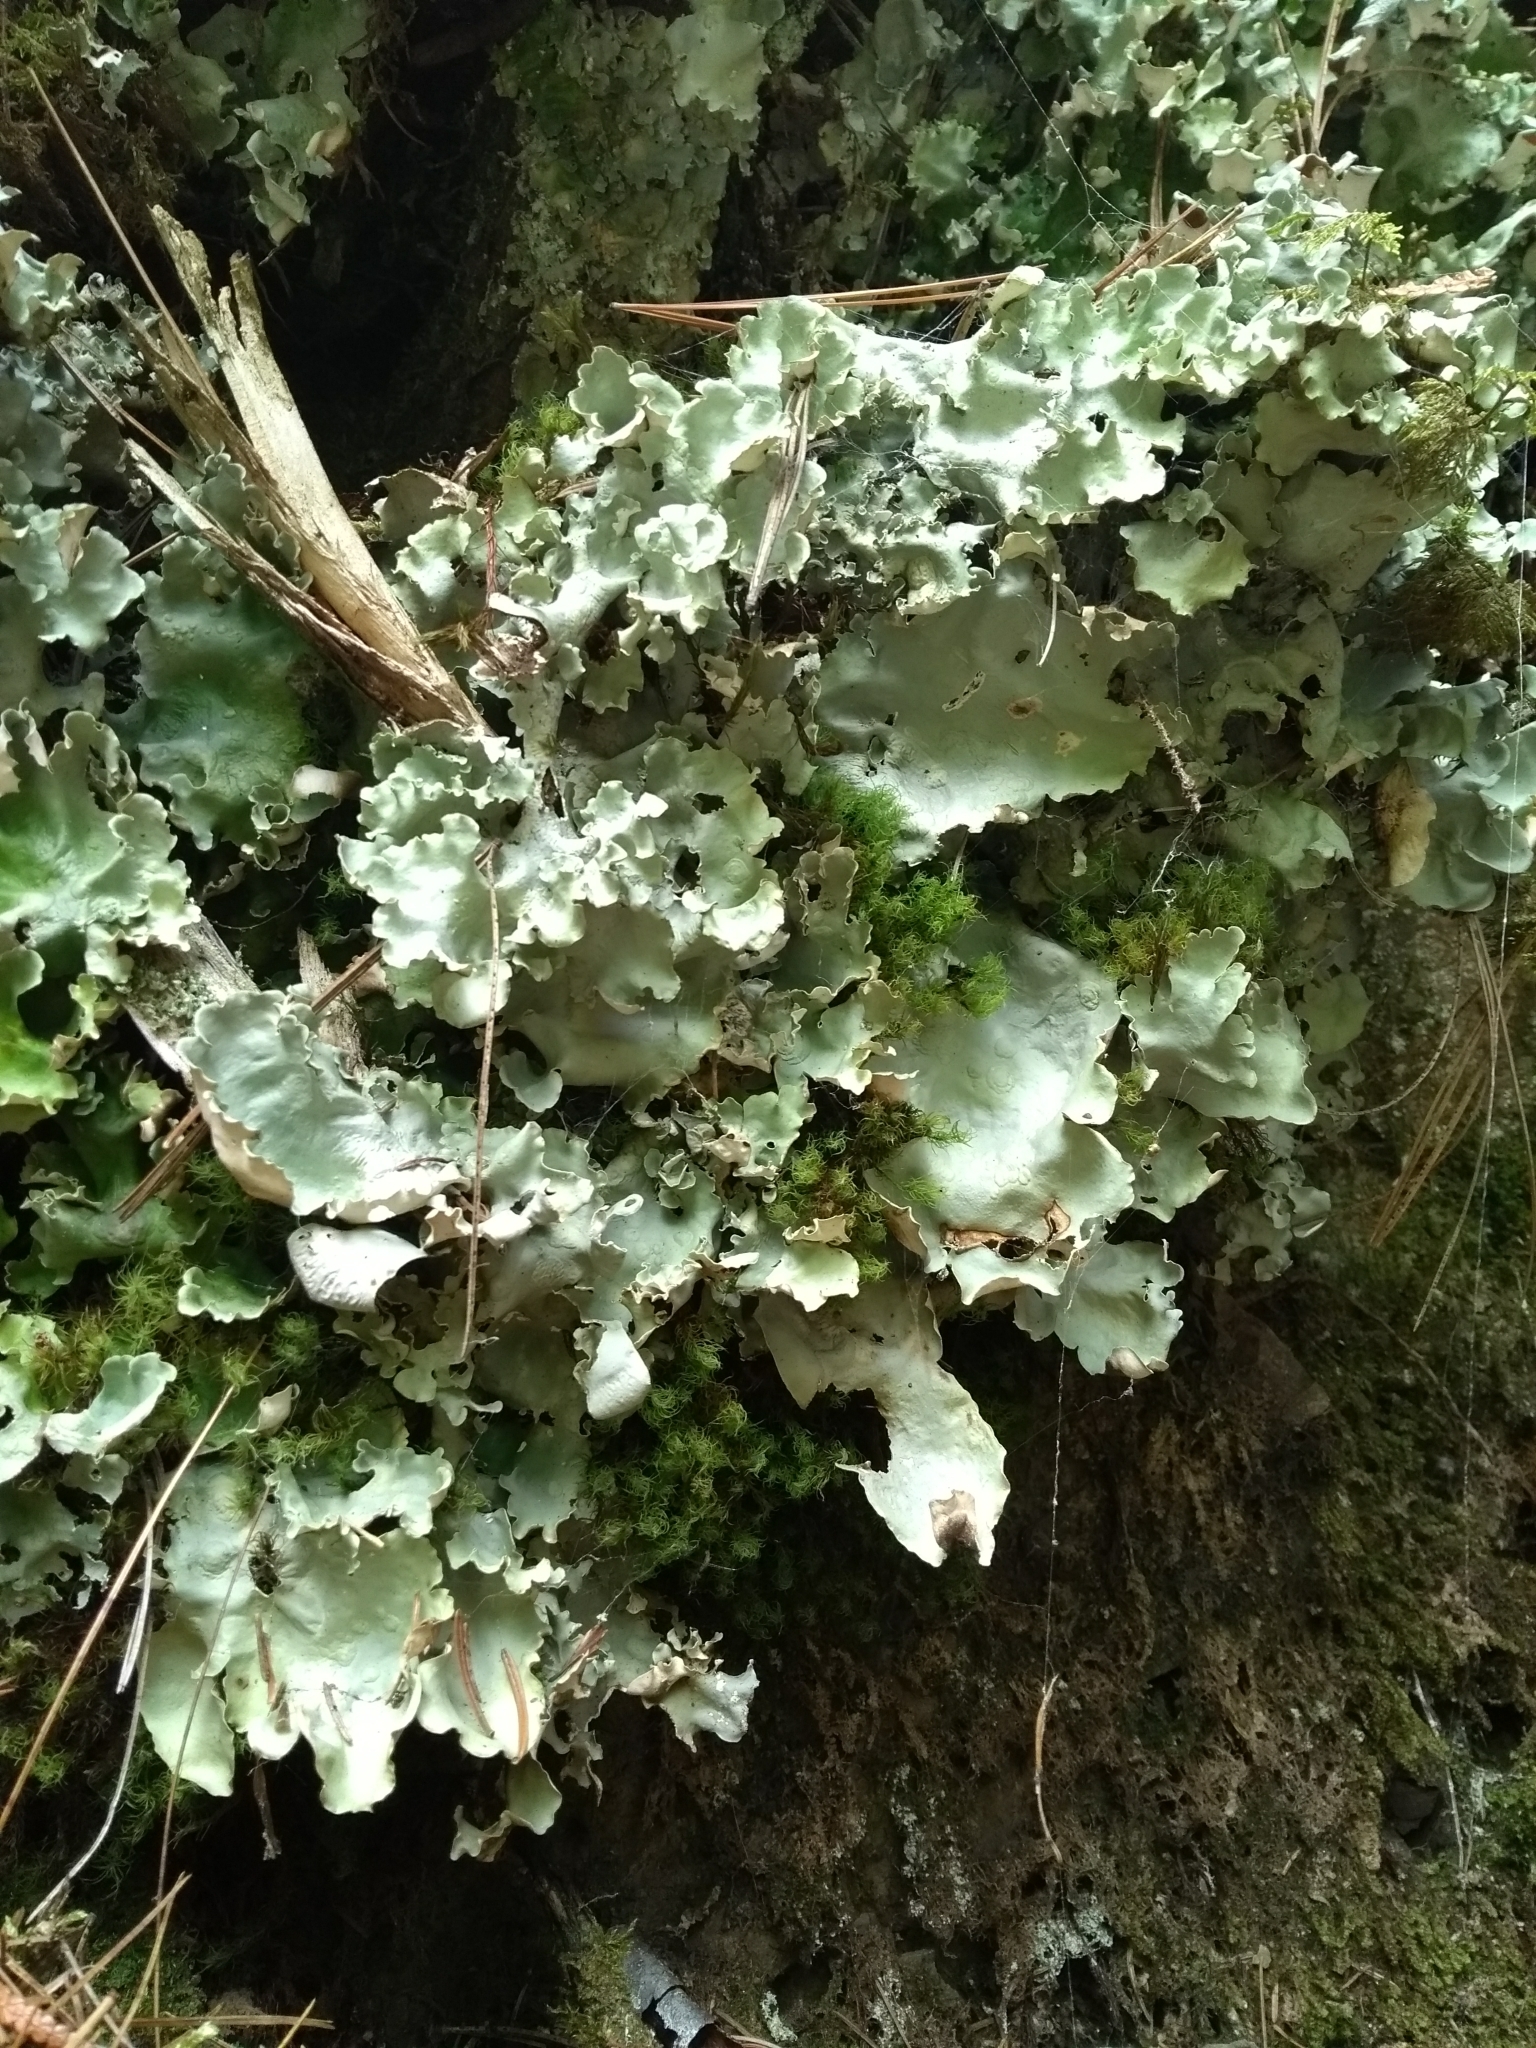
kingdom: Fungi
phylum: Ascomycota
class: Lecanoromycetes
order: Peltigerales
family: Nephromataceae
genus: Nephroma
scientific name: Nephroma arcticum
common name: Arctic kidney-lichen
